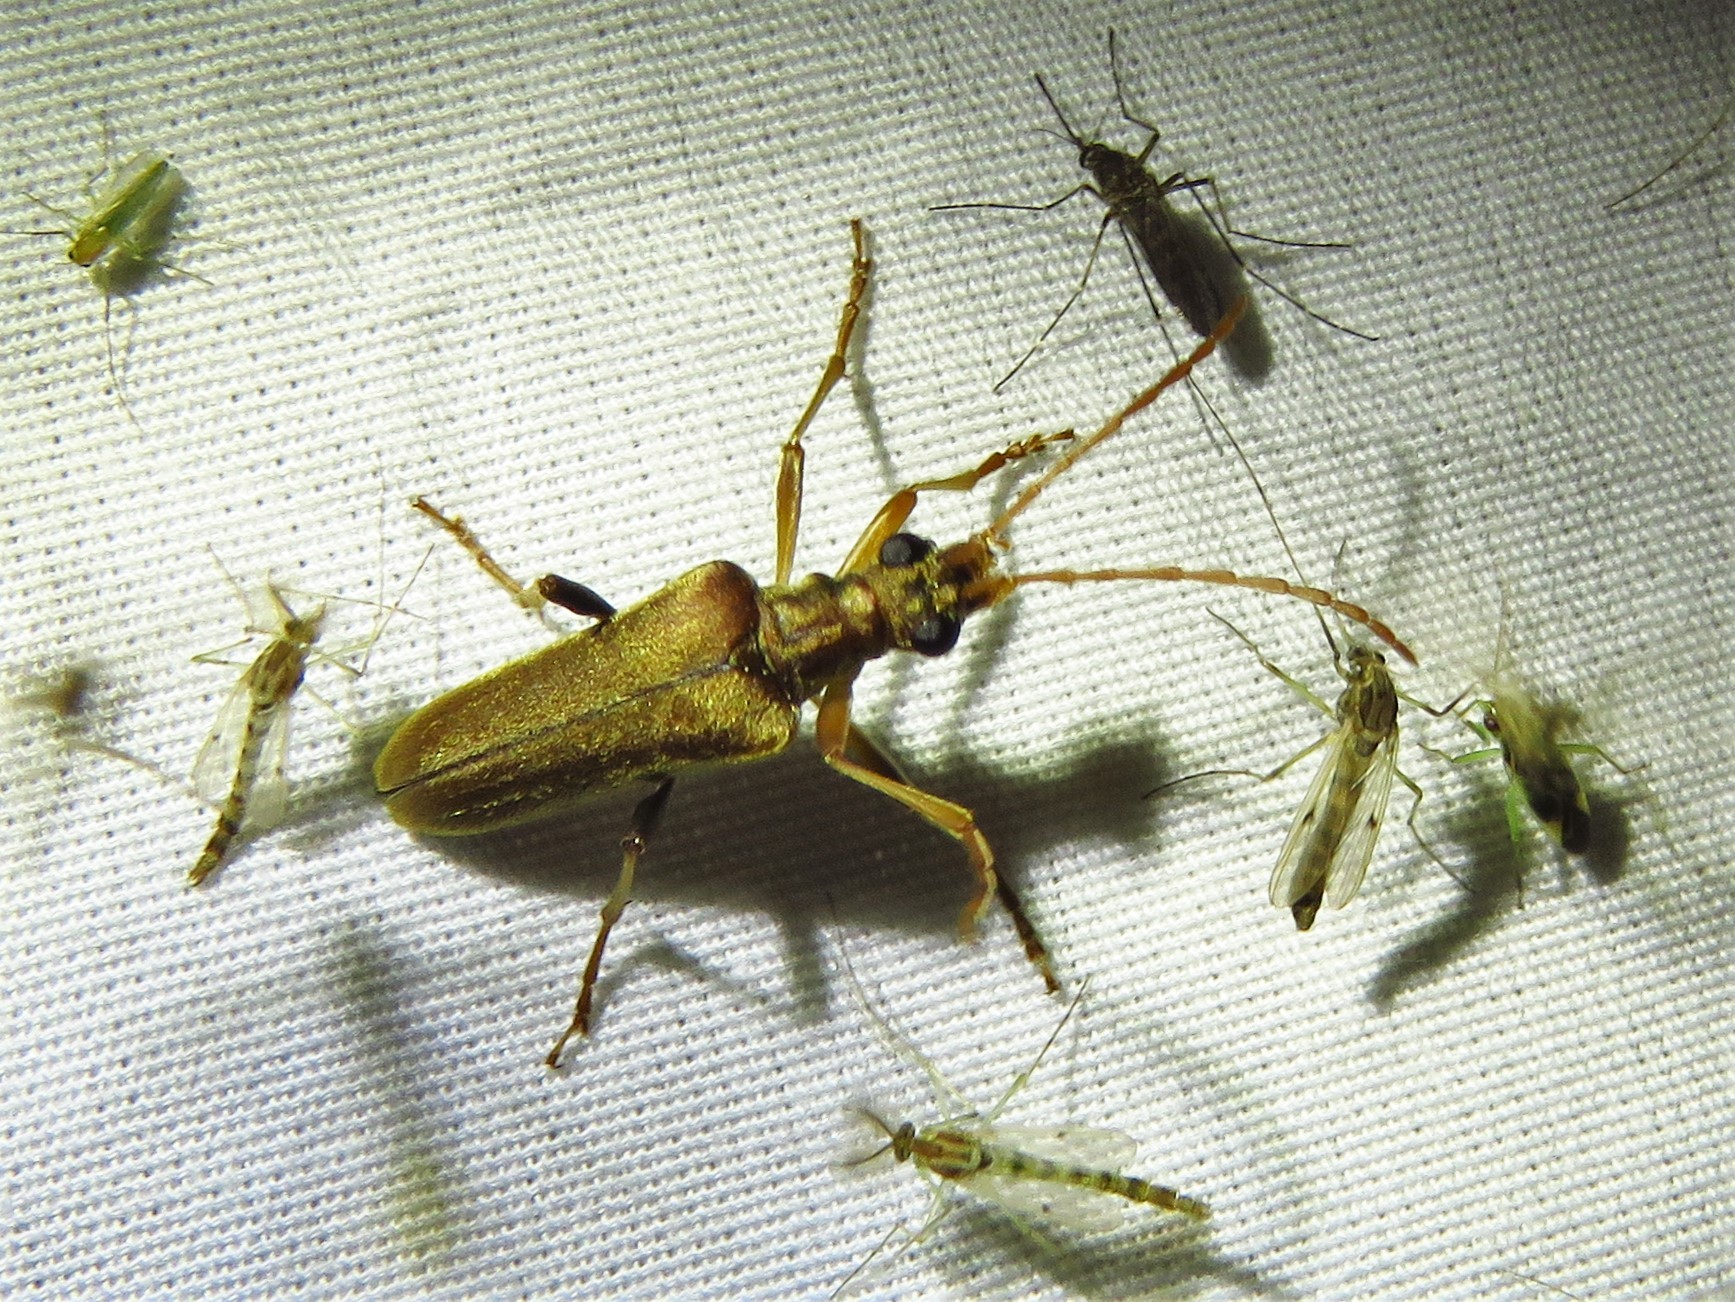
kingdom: Animalia
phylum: Arthropoda
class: Insecta
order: Coleoptera
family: Cerambycidae
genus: Stenocorus
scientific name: Stenocorus cinnamopterus
